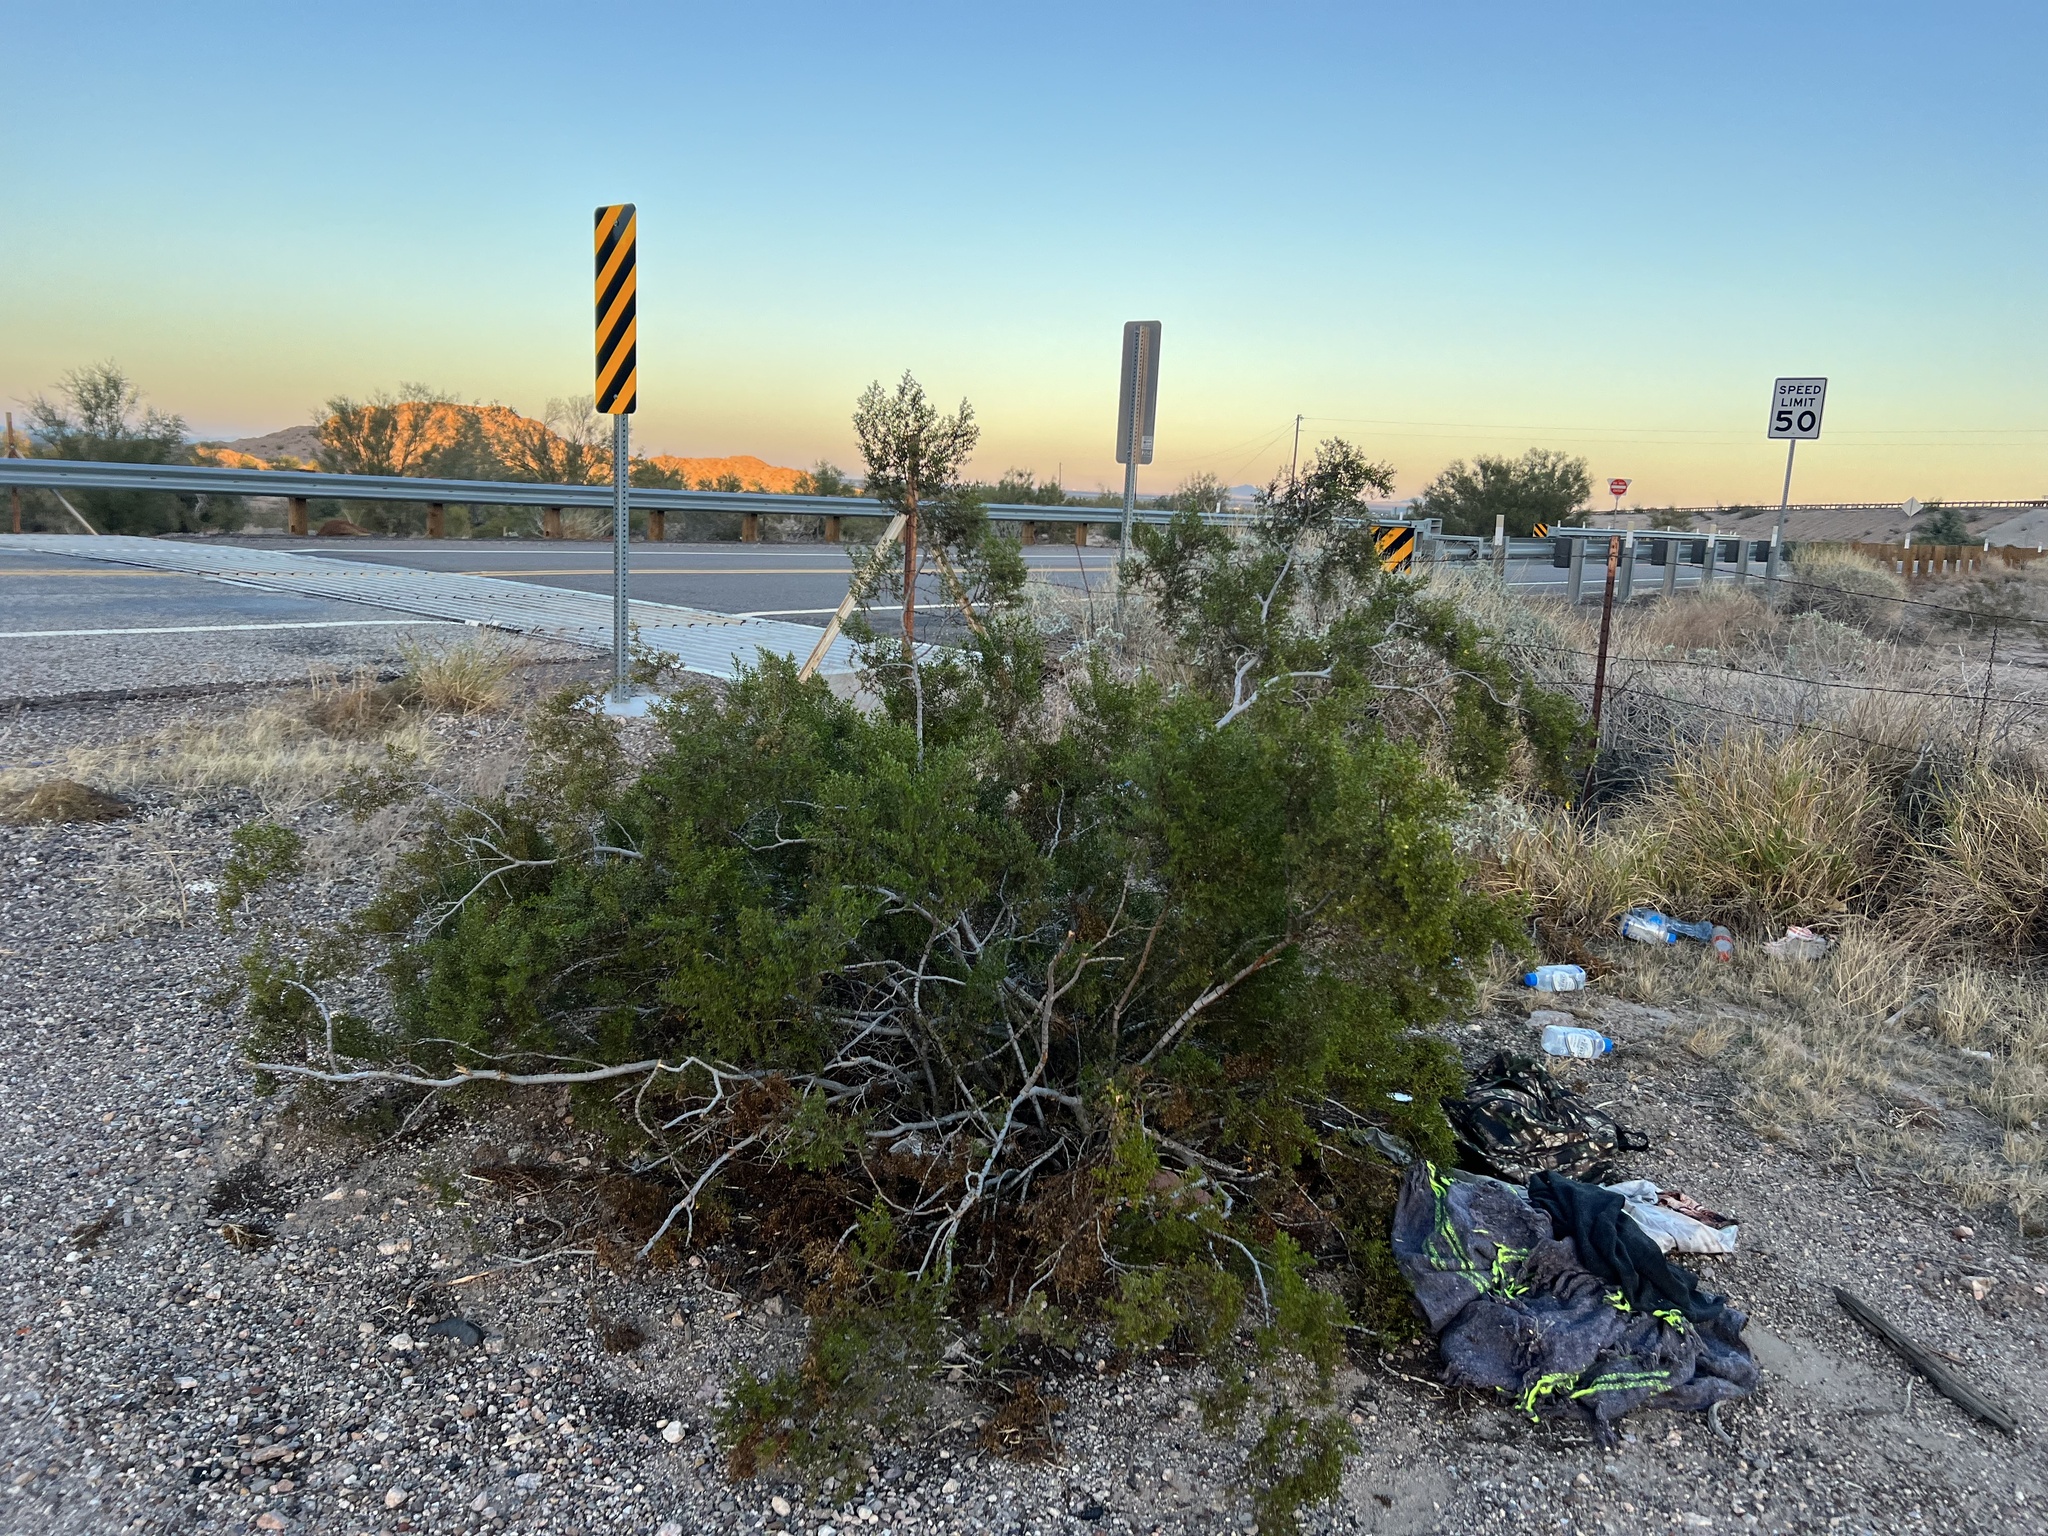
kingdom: Plantae
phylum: Tracheophyta
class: Magnoliopsida
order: Zygophyllales
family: Zygophyllaceae
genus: Larrea
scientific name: Larrea tridentata
